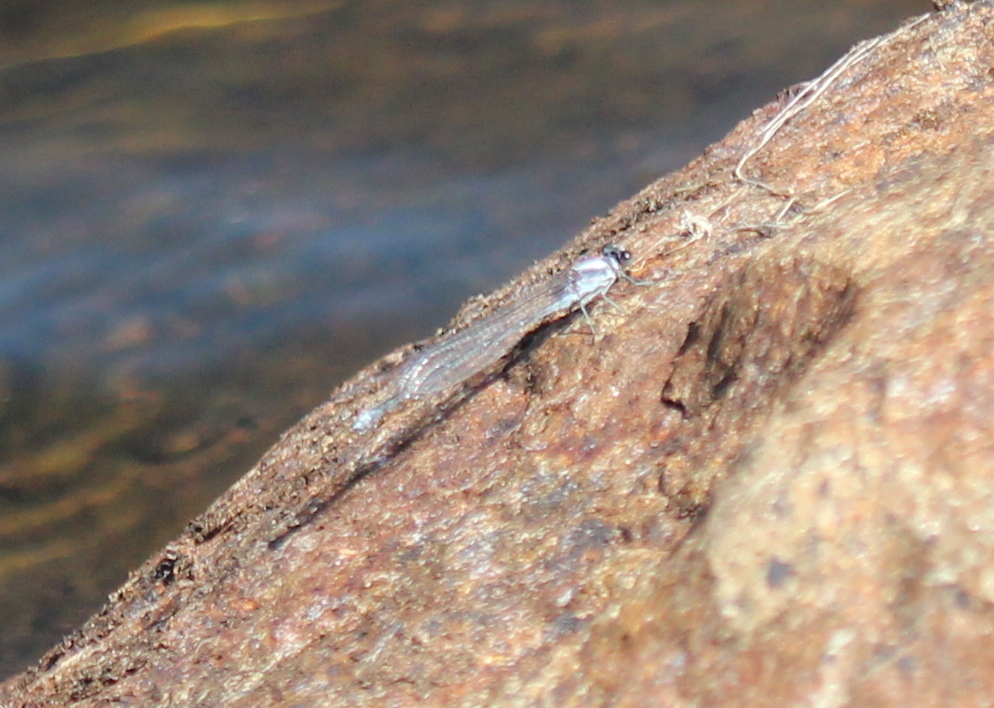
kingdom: Animalia
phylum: Arthropoda
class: Insecta
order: Odonata
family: Coenagrionidae
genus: Argia
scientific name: Argia moesta
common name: Powdered dancer
